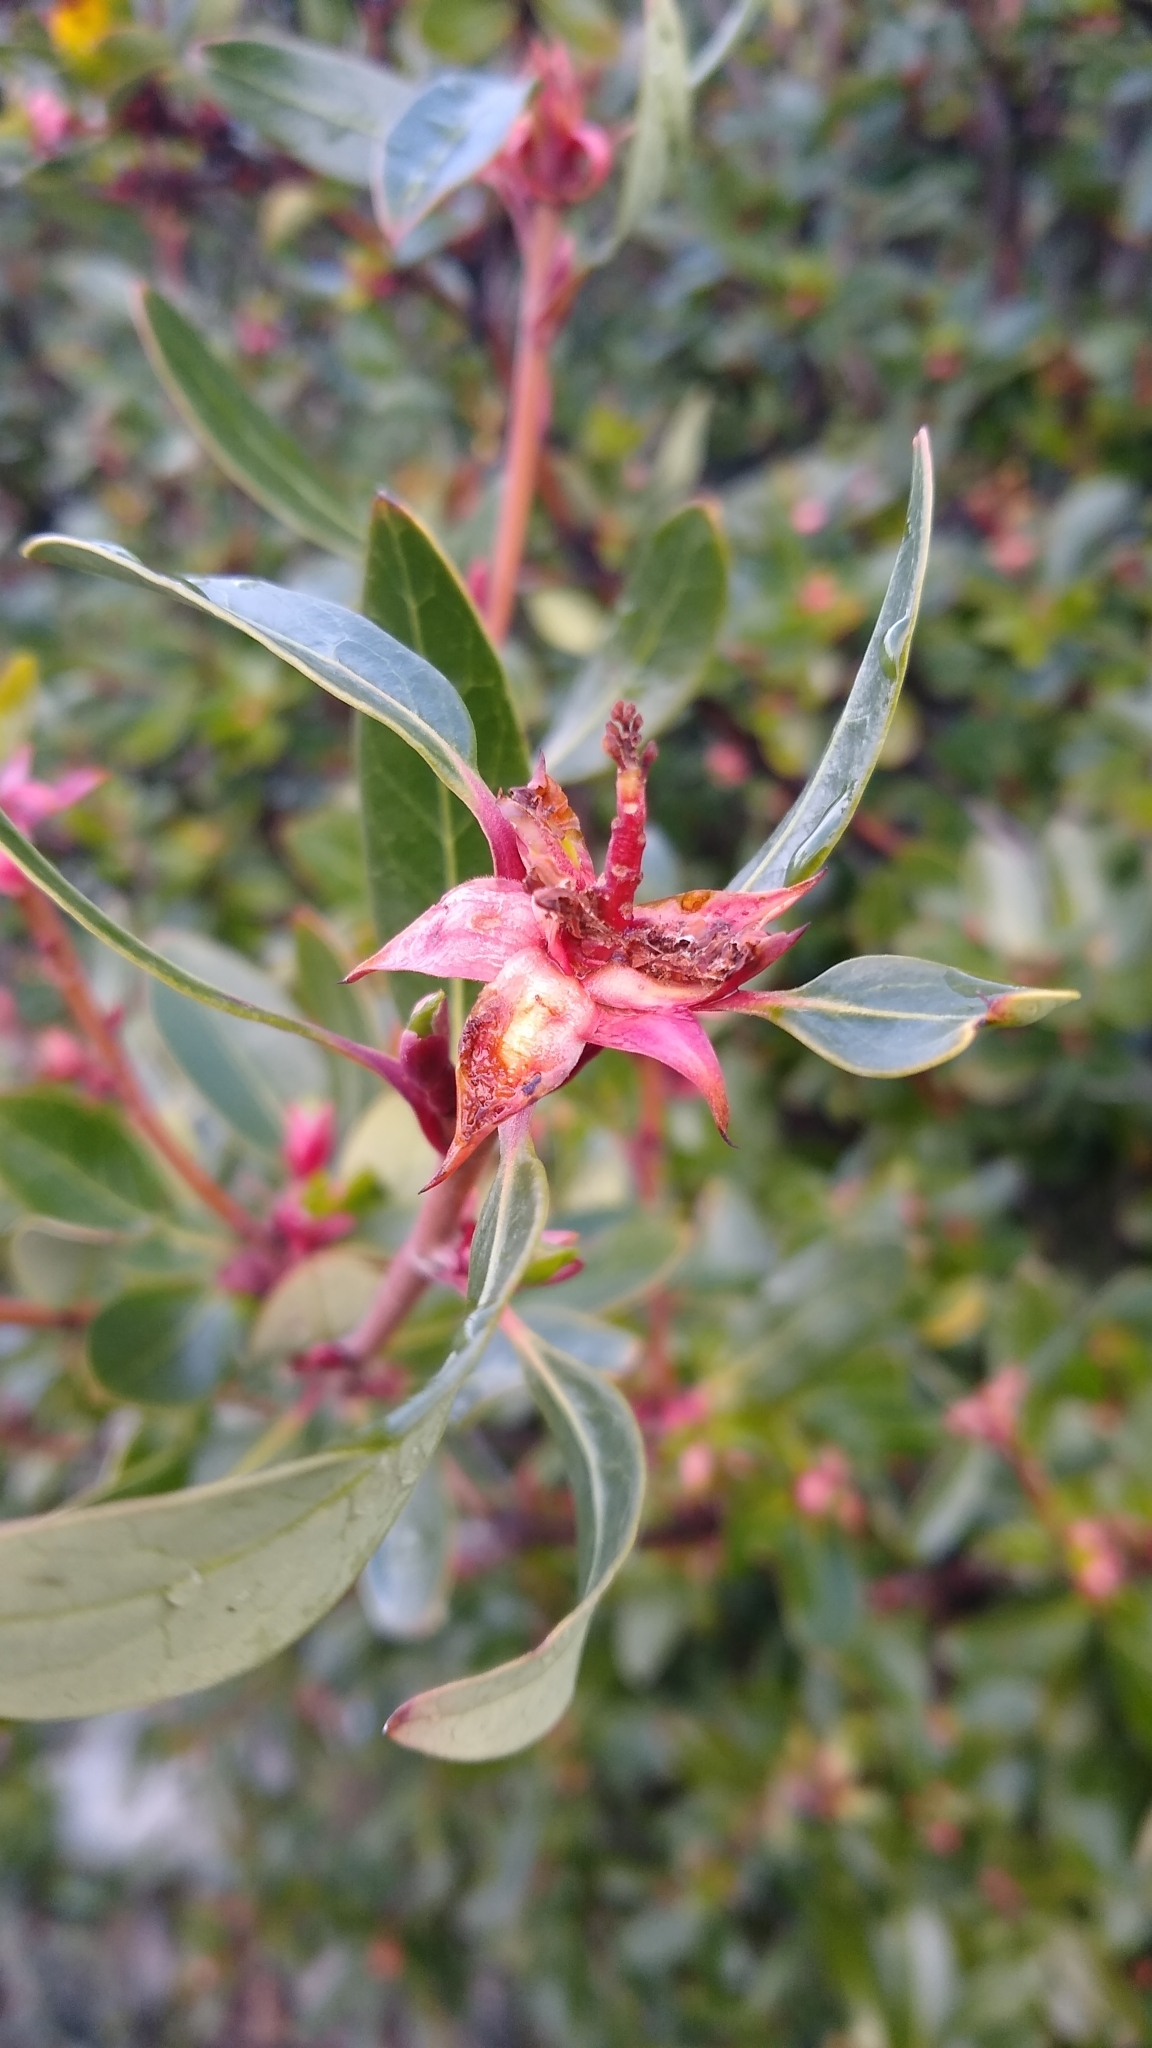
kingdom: Plantae
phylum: Tracheophyta
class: Magnoliopsida
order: Proteales
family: Proteaceae
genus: Embothrium
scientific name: Embothrium coccineum
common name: Chilean firebush
